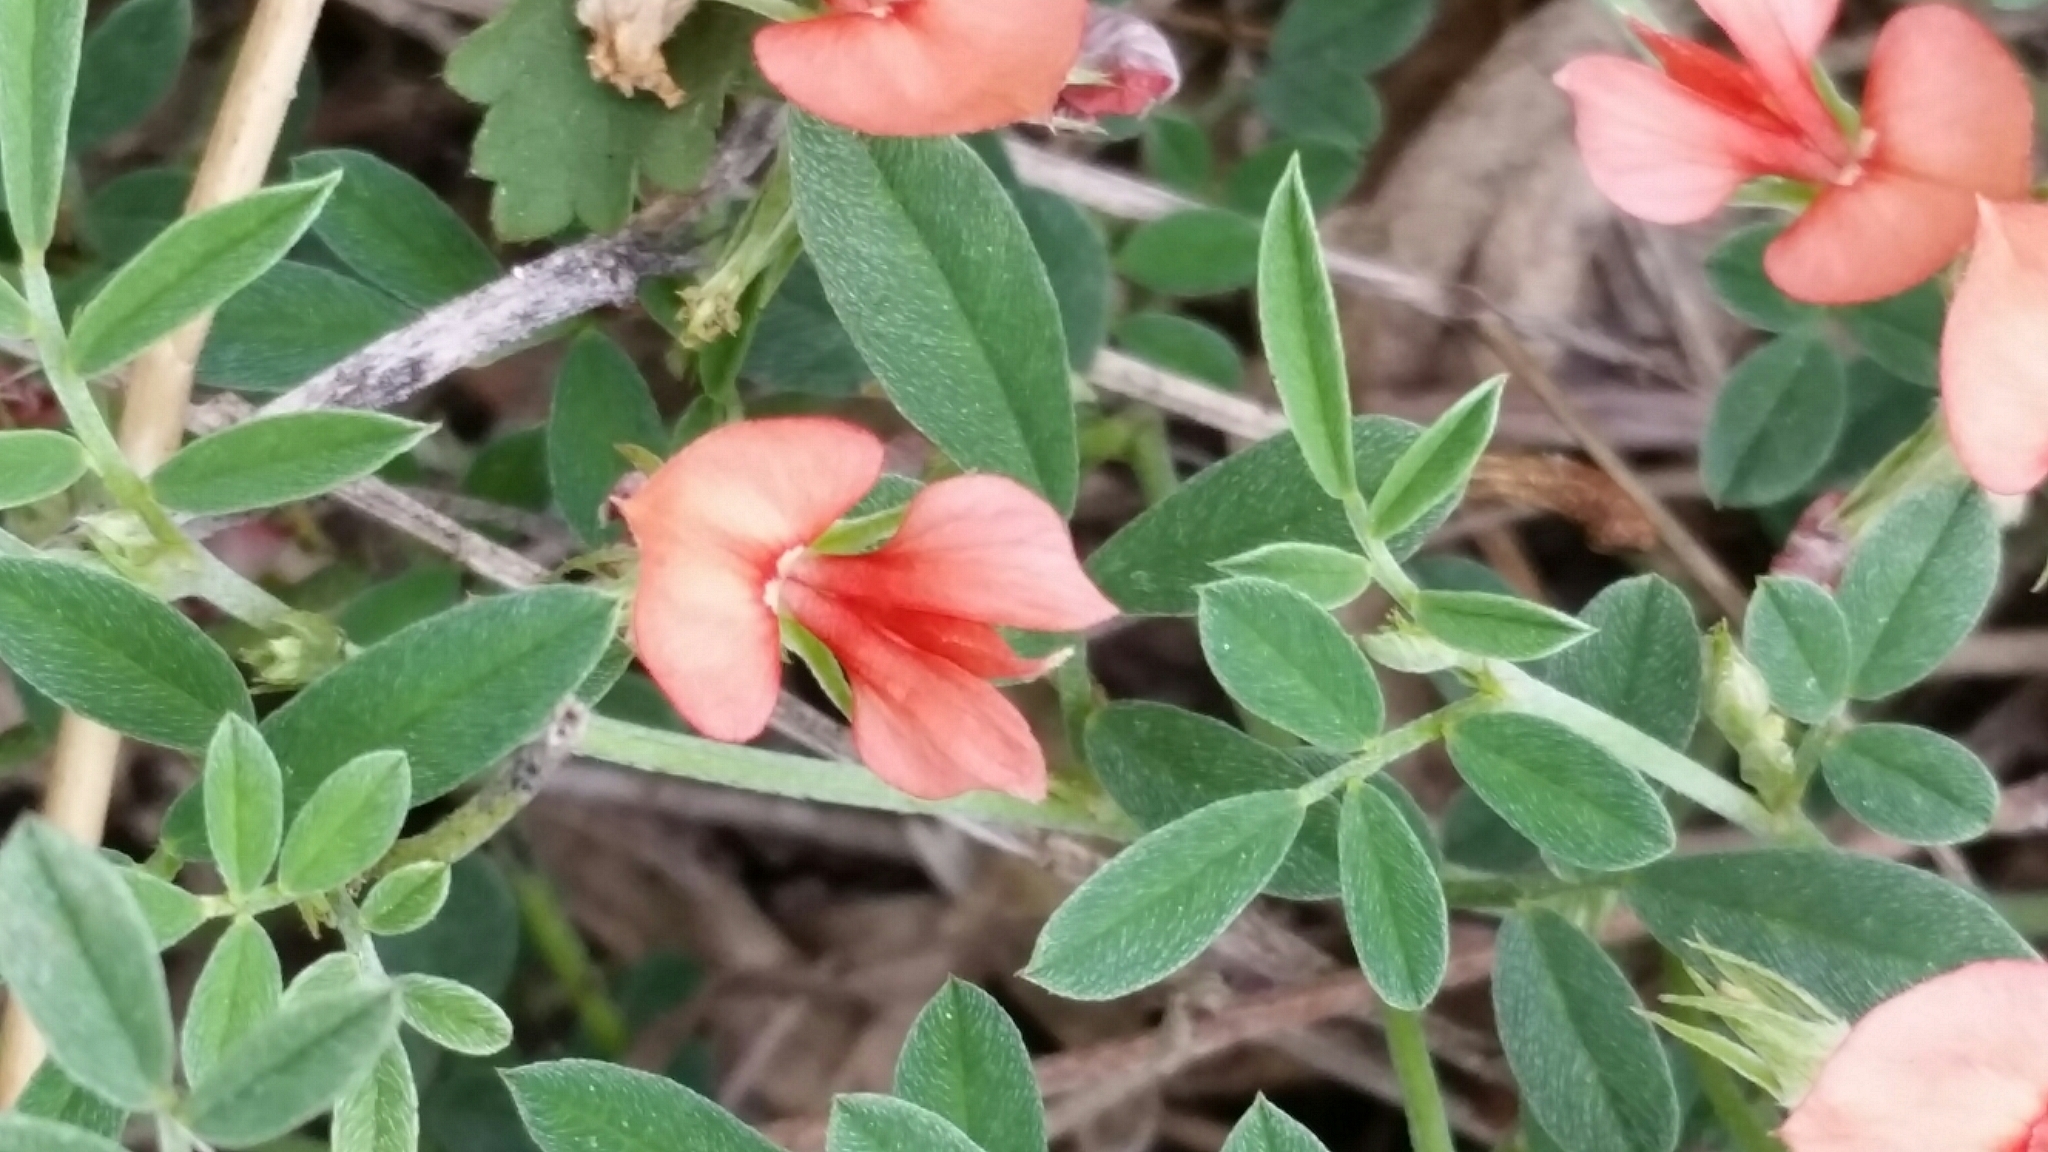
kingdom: Plantae
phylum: Tracheophyta
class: Magnoliopsida
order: Fabales
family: Fabaceae
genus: Indigofera
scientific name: Indigofera miniata
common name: Coast indigo
